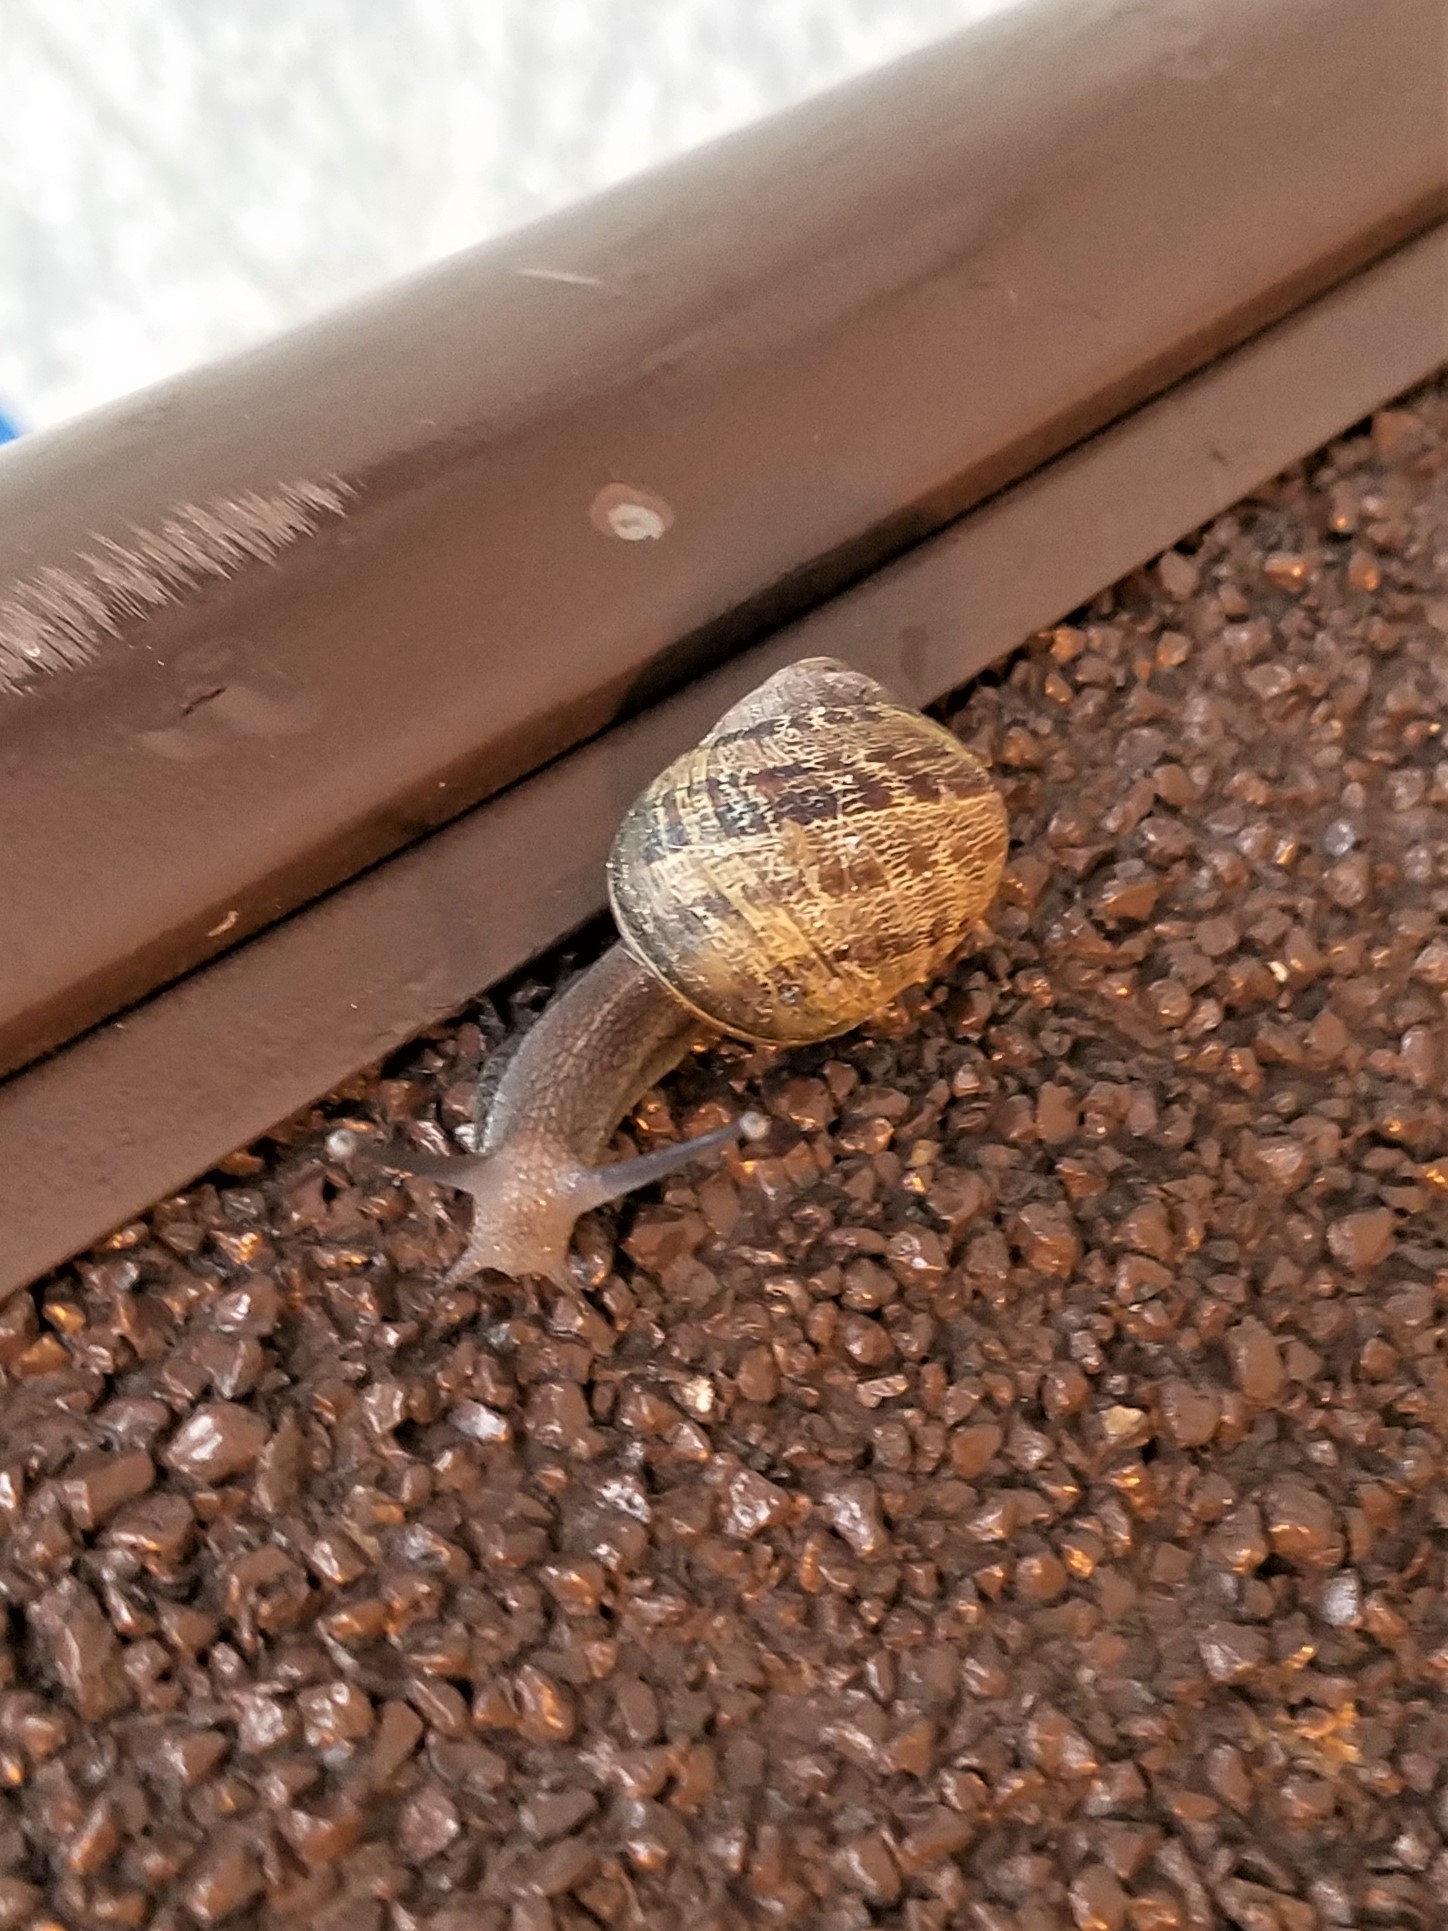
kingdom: Animalia
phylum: Mollusca
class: Gastropoda
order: Stylommatophora
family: Helicidae
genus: Cornu
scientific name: Cornu aspersum
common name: Brown garden snail
